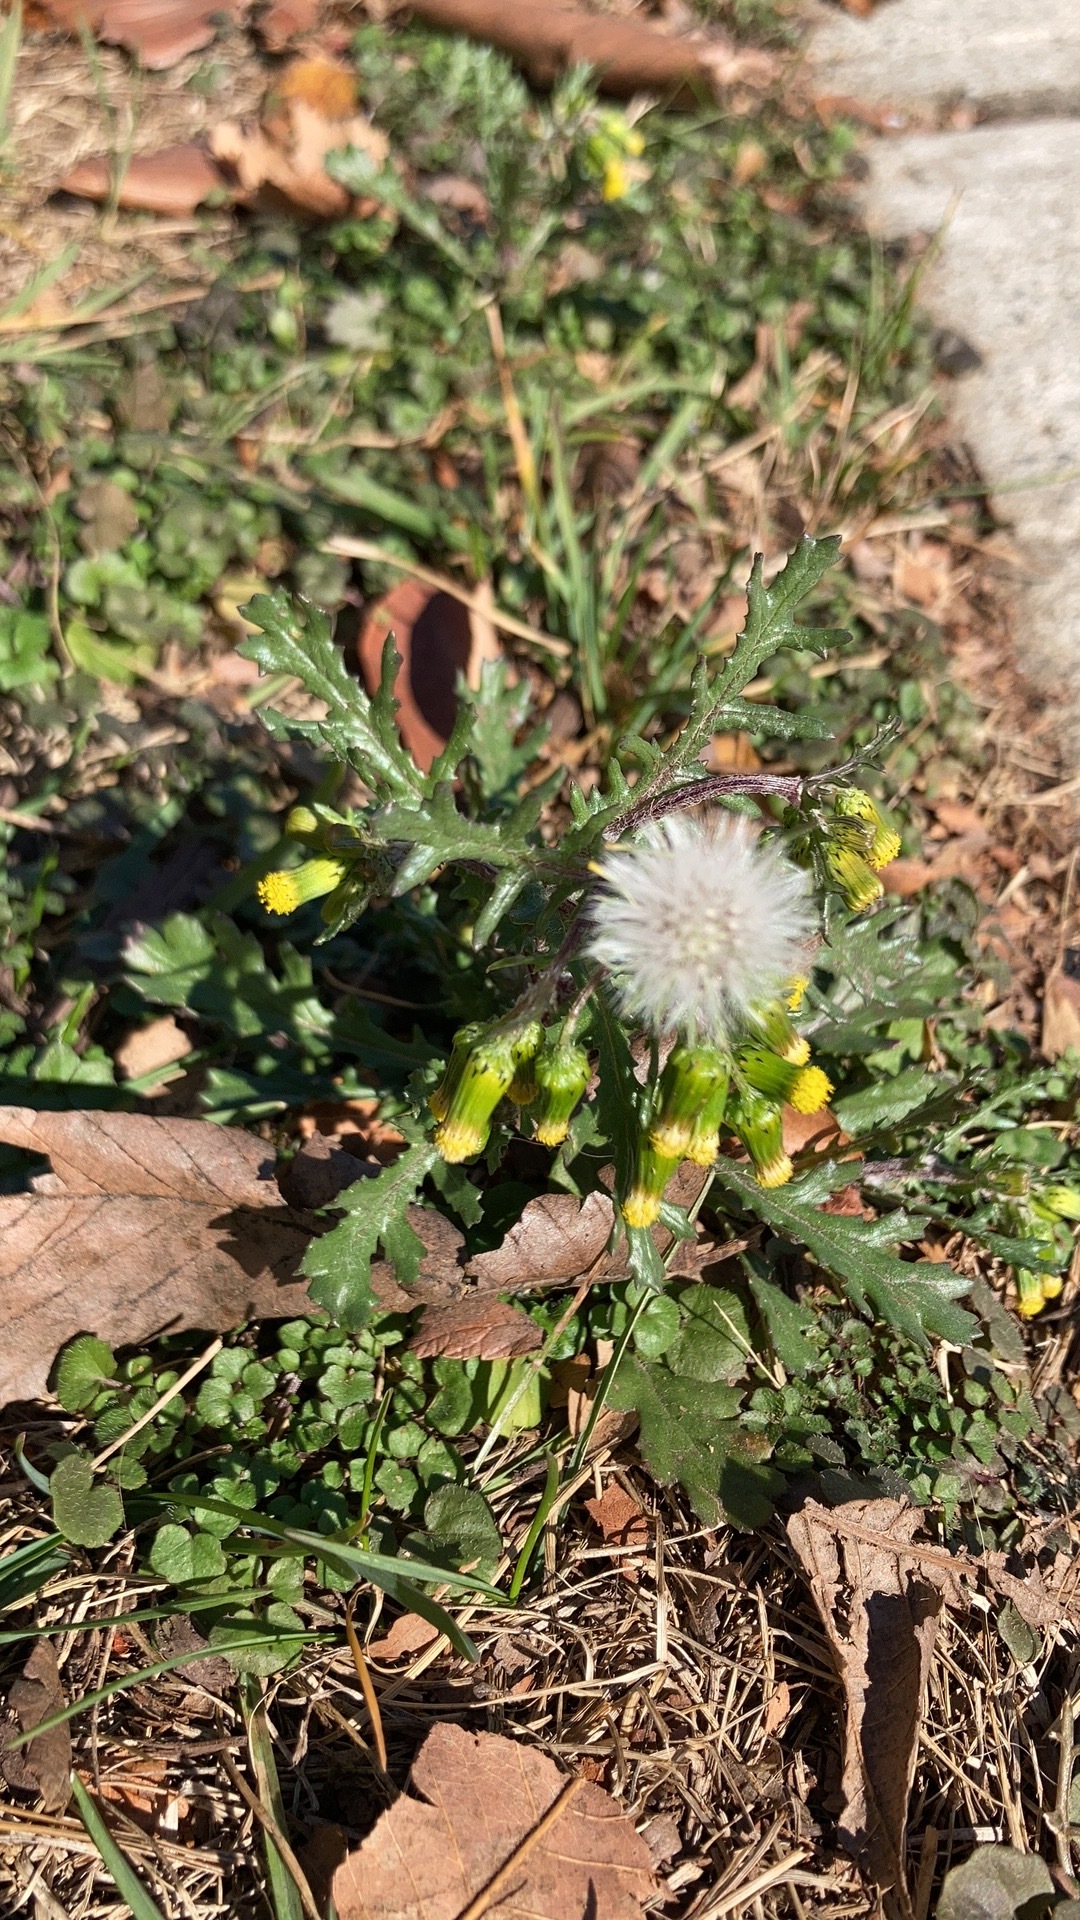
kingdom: Plantae
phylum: Tracheophyta
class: Magnoliopsida
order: Asterales
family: Asteraceae
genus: Senecio
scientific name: Senecio vulgaris
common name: Old-man-in-the-spring
